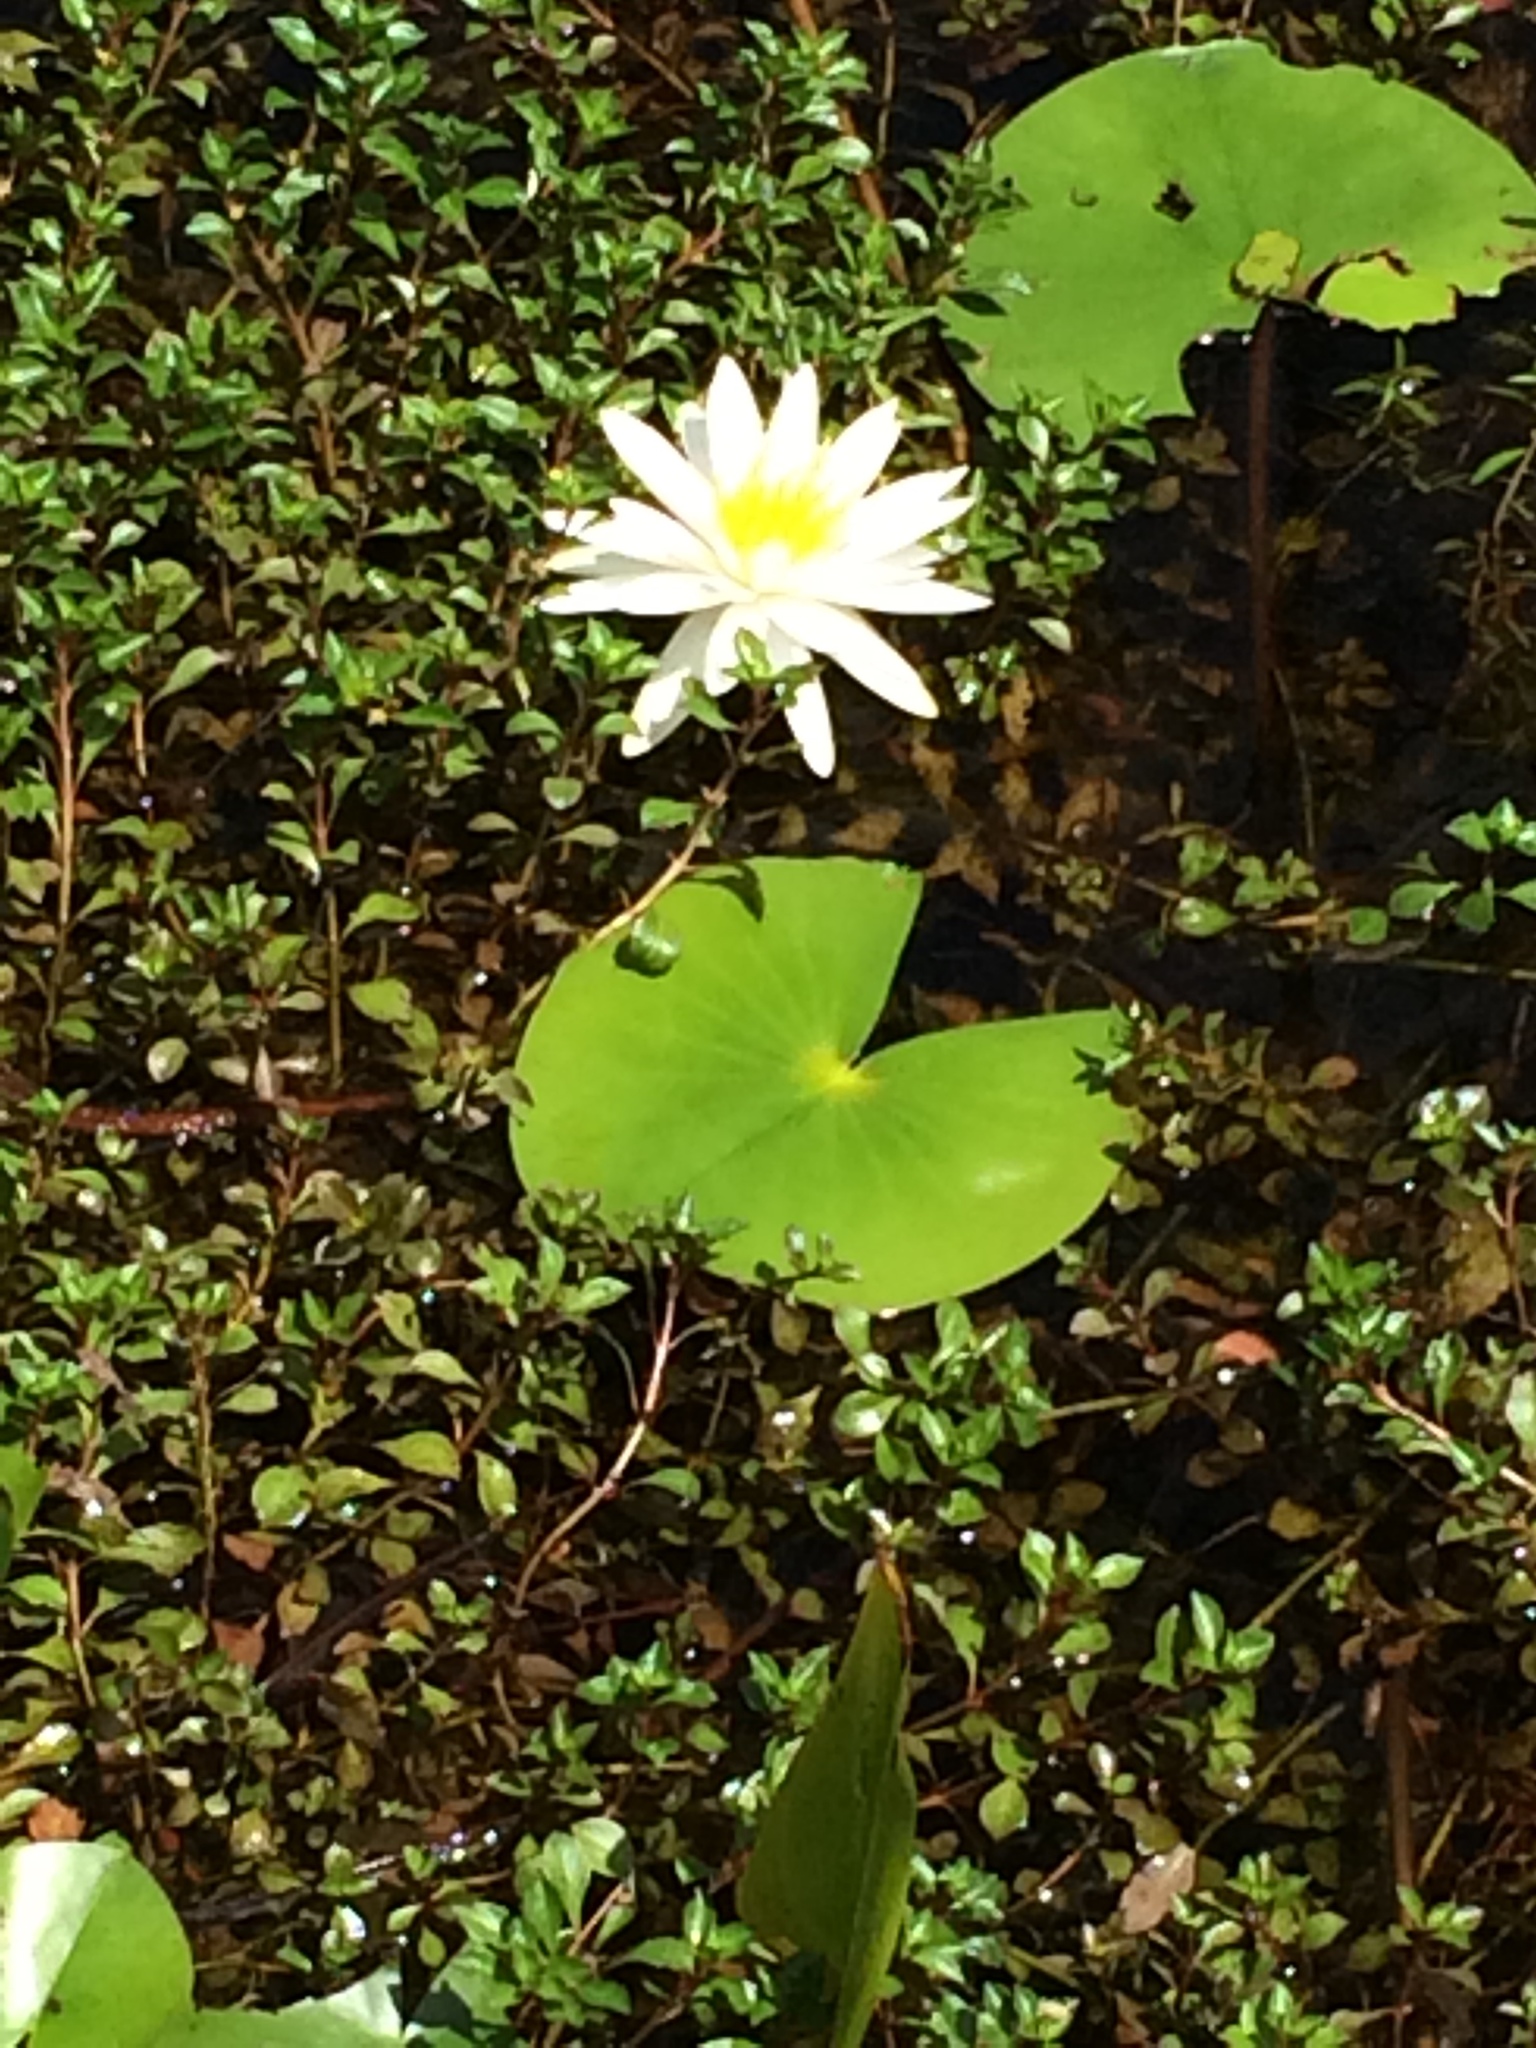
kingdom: Plantae
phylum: Tracheophyta
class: Magnoliopsida
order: Nymphaeales
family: Nymphaeaceae
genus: Nymphaea
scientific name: Nymphaea odorata
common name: Fragrant water-lily
